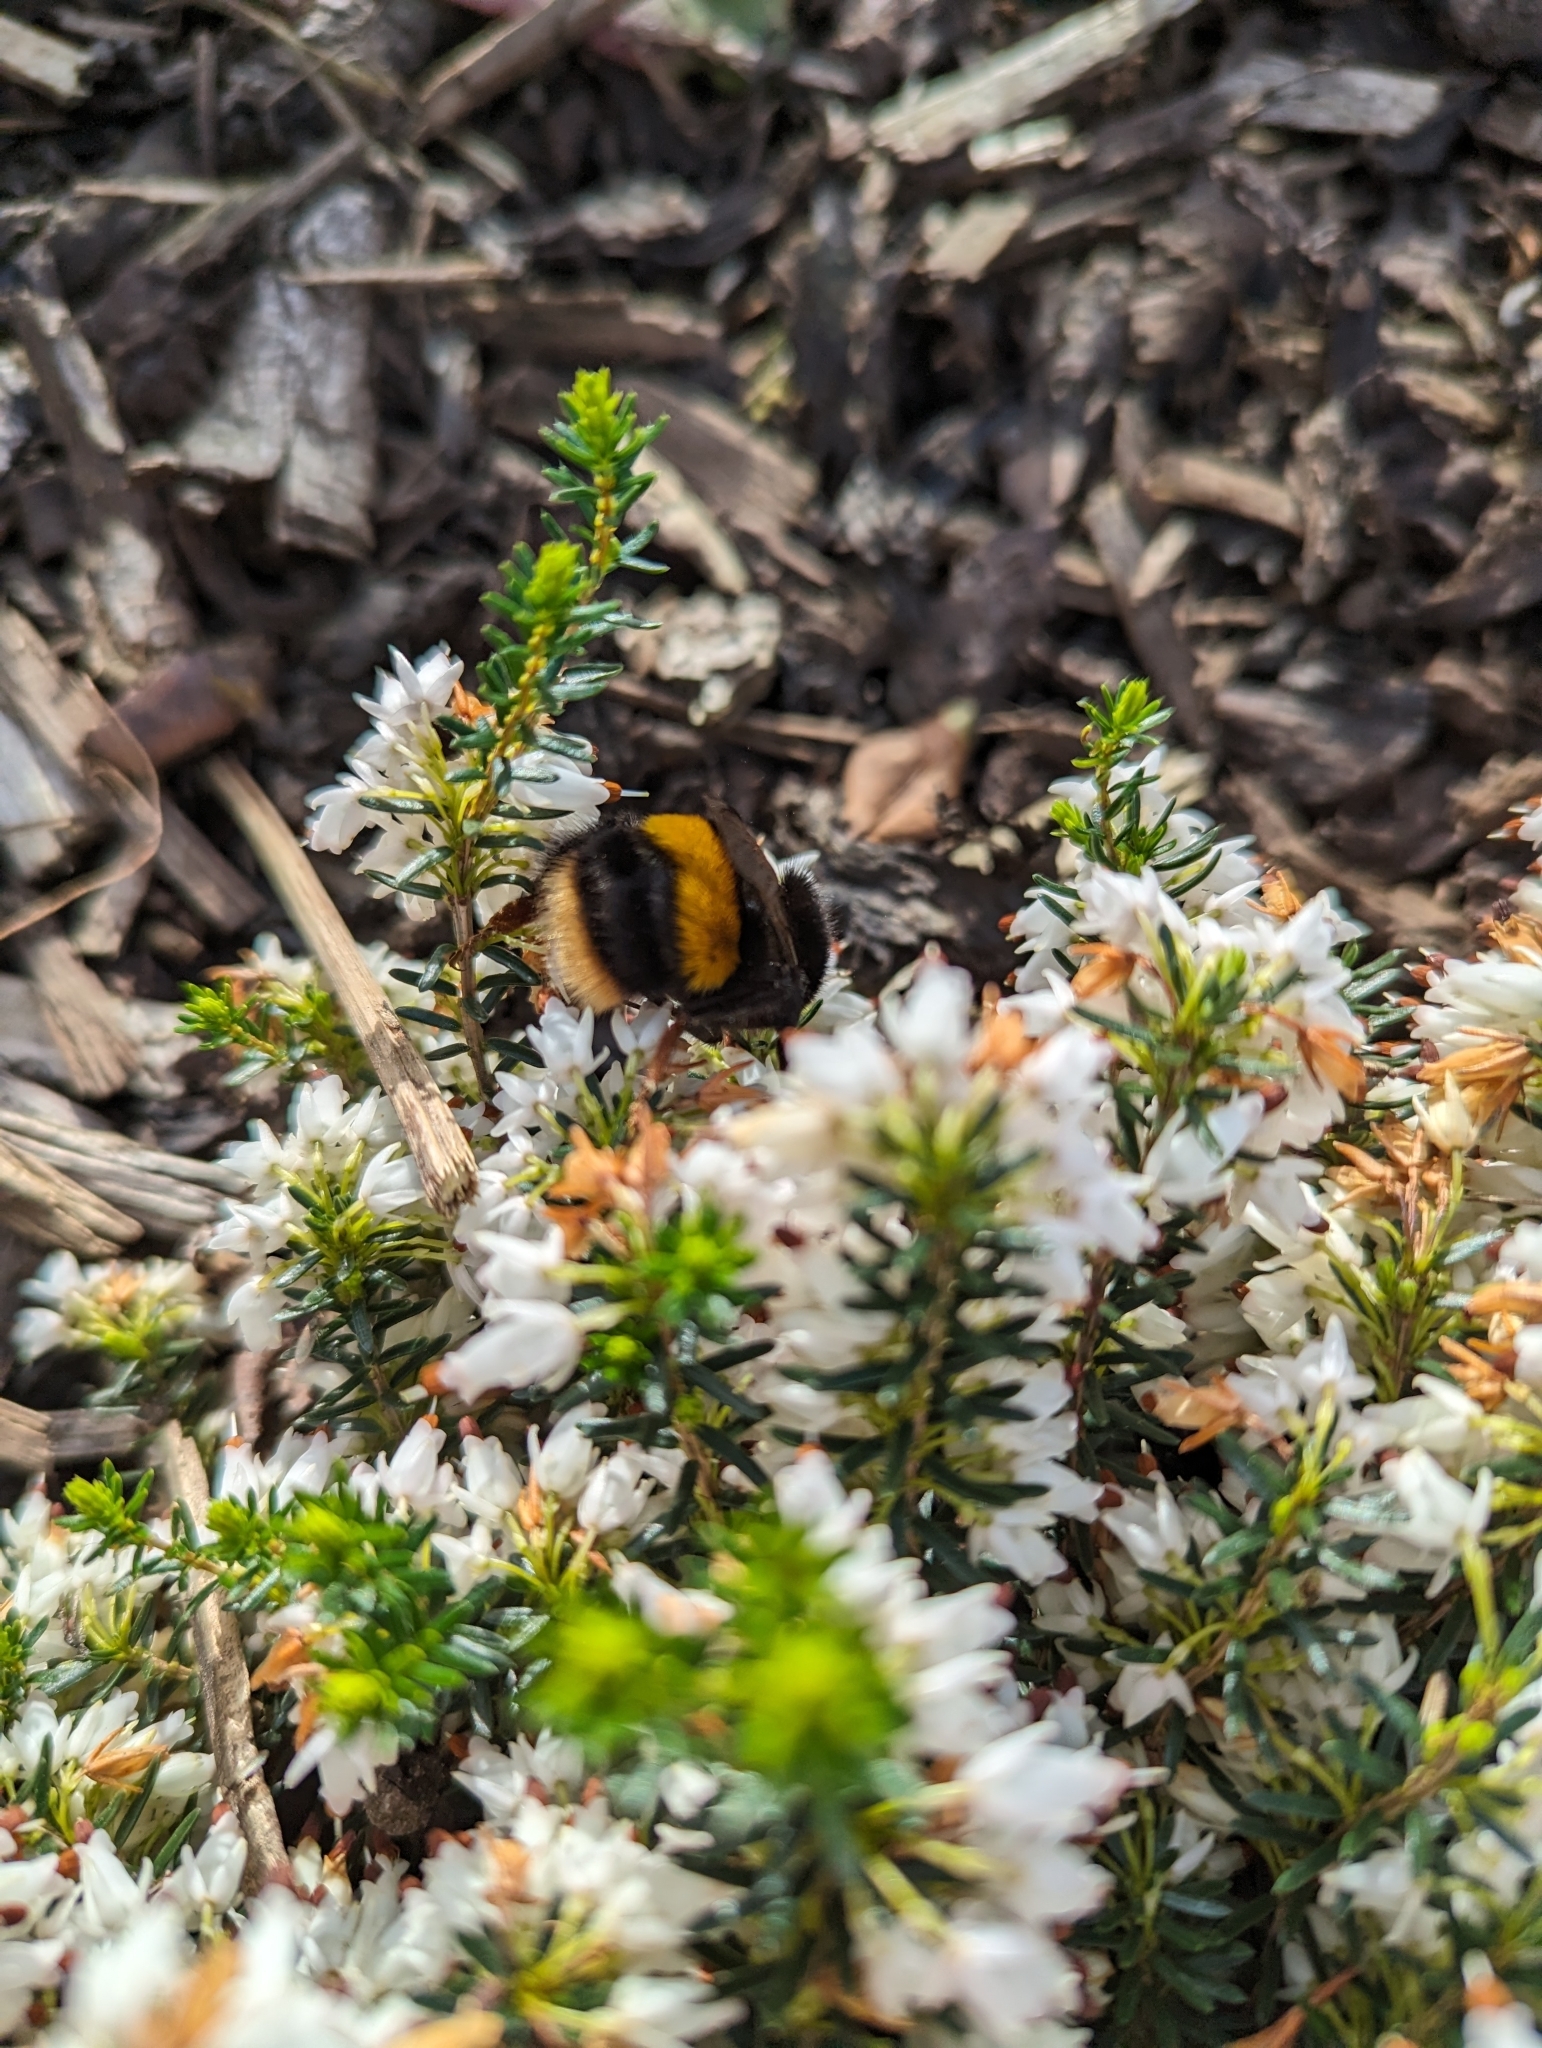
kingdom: Animalia
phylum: Arthropoda
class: Insecta
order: Hymenoptera
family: Apidae
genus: Bombus
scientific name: Bombus terrestris
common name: Buff-tailed bumblebee
